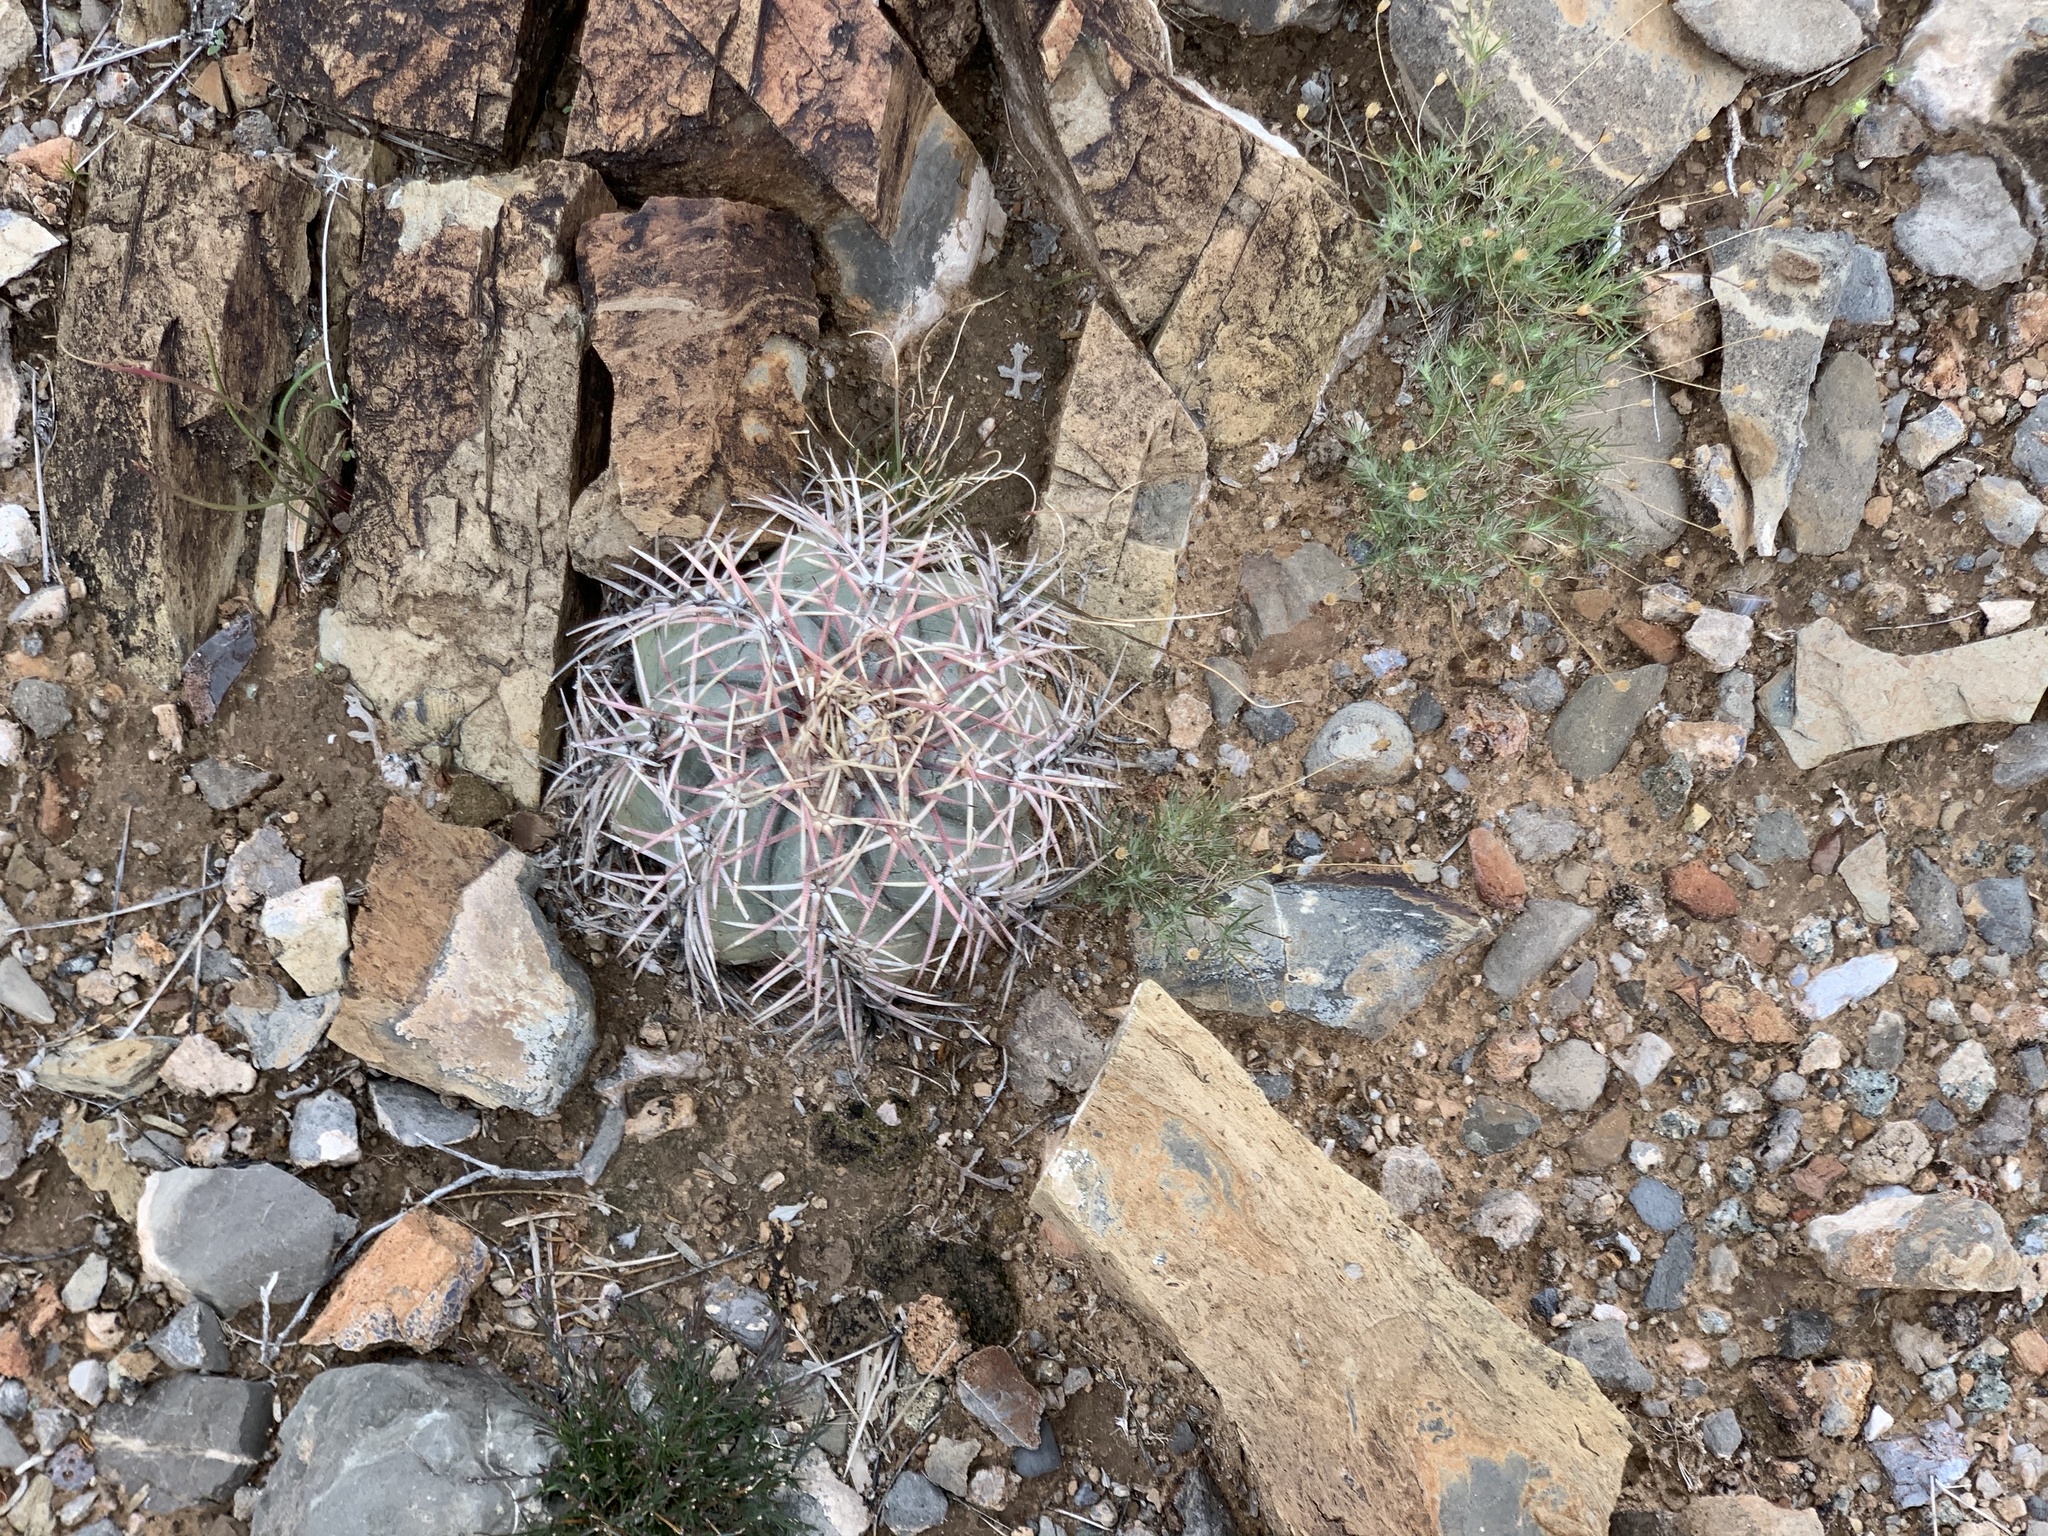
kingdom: Plantae
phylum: Tracheophyta
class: Magnoliopsida
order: Caryophyllales
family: Cactaceae
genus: Echinocactus
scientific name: Echinocactus horizonthalonius
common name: Devilshead
